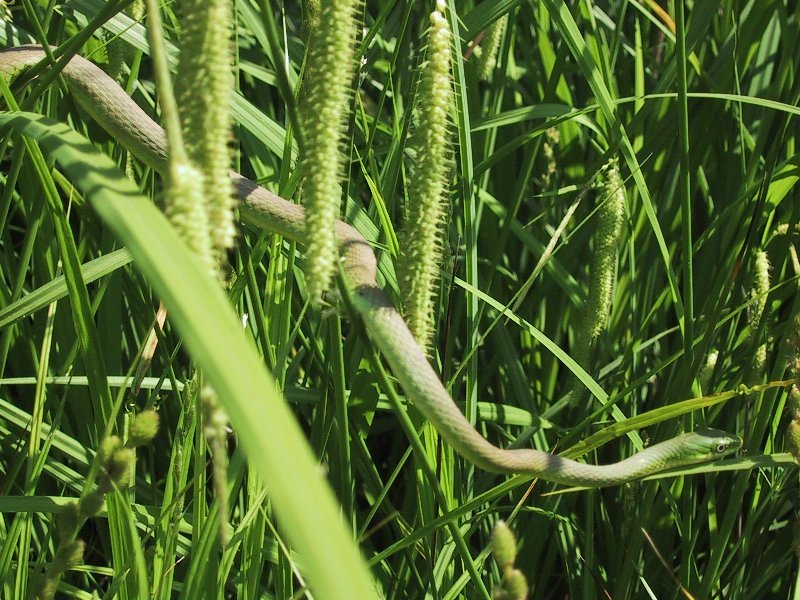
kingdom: Animalia
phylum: Chordata
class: Squamata
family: Colubridae
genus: Opheodrys
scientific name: Opheodrys aestivus
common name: Rough greensnake
